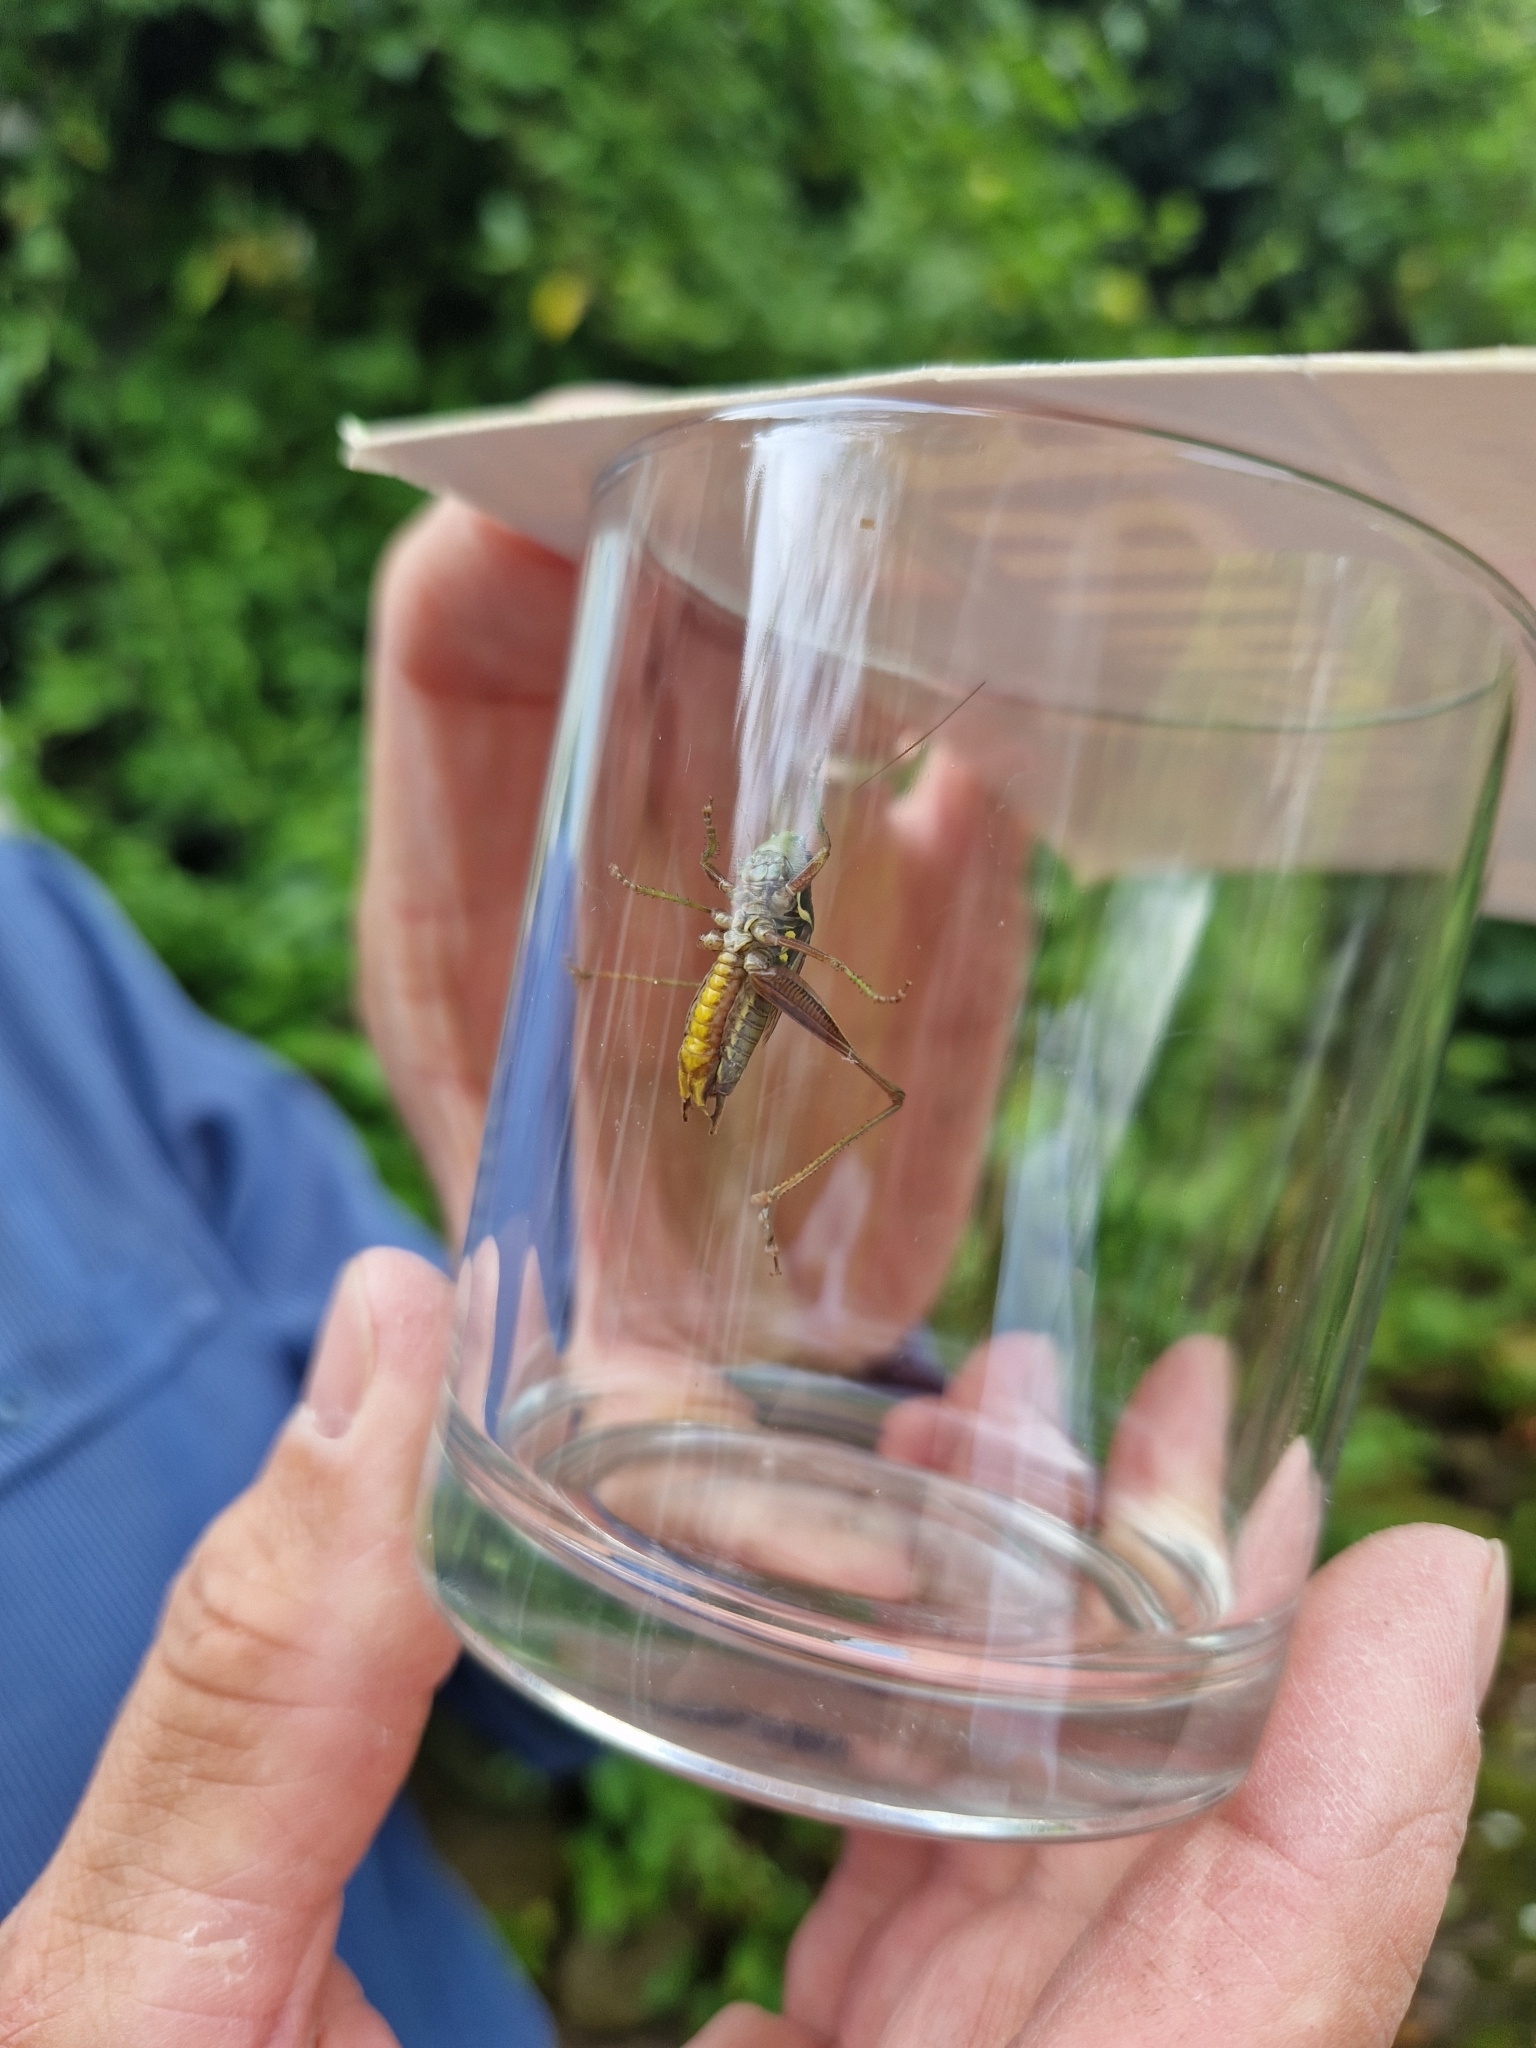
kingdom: Animalia
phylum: Arthropoda
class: Insecta
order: Orthoptera
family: Tettigoniidae
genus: Roeseliana
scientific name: Roeseliana roeselii
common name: Roesel's bush cricket
